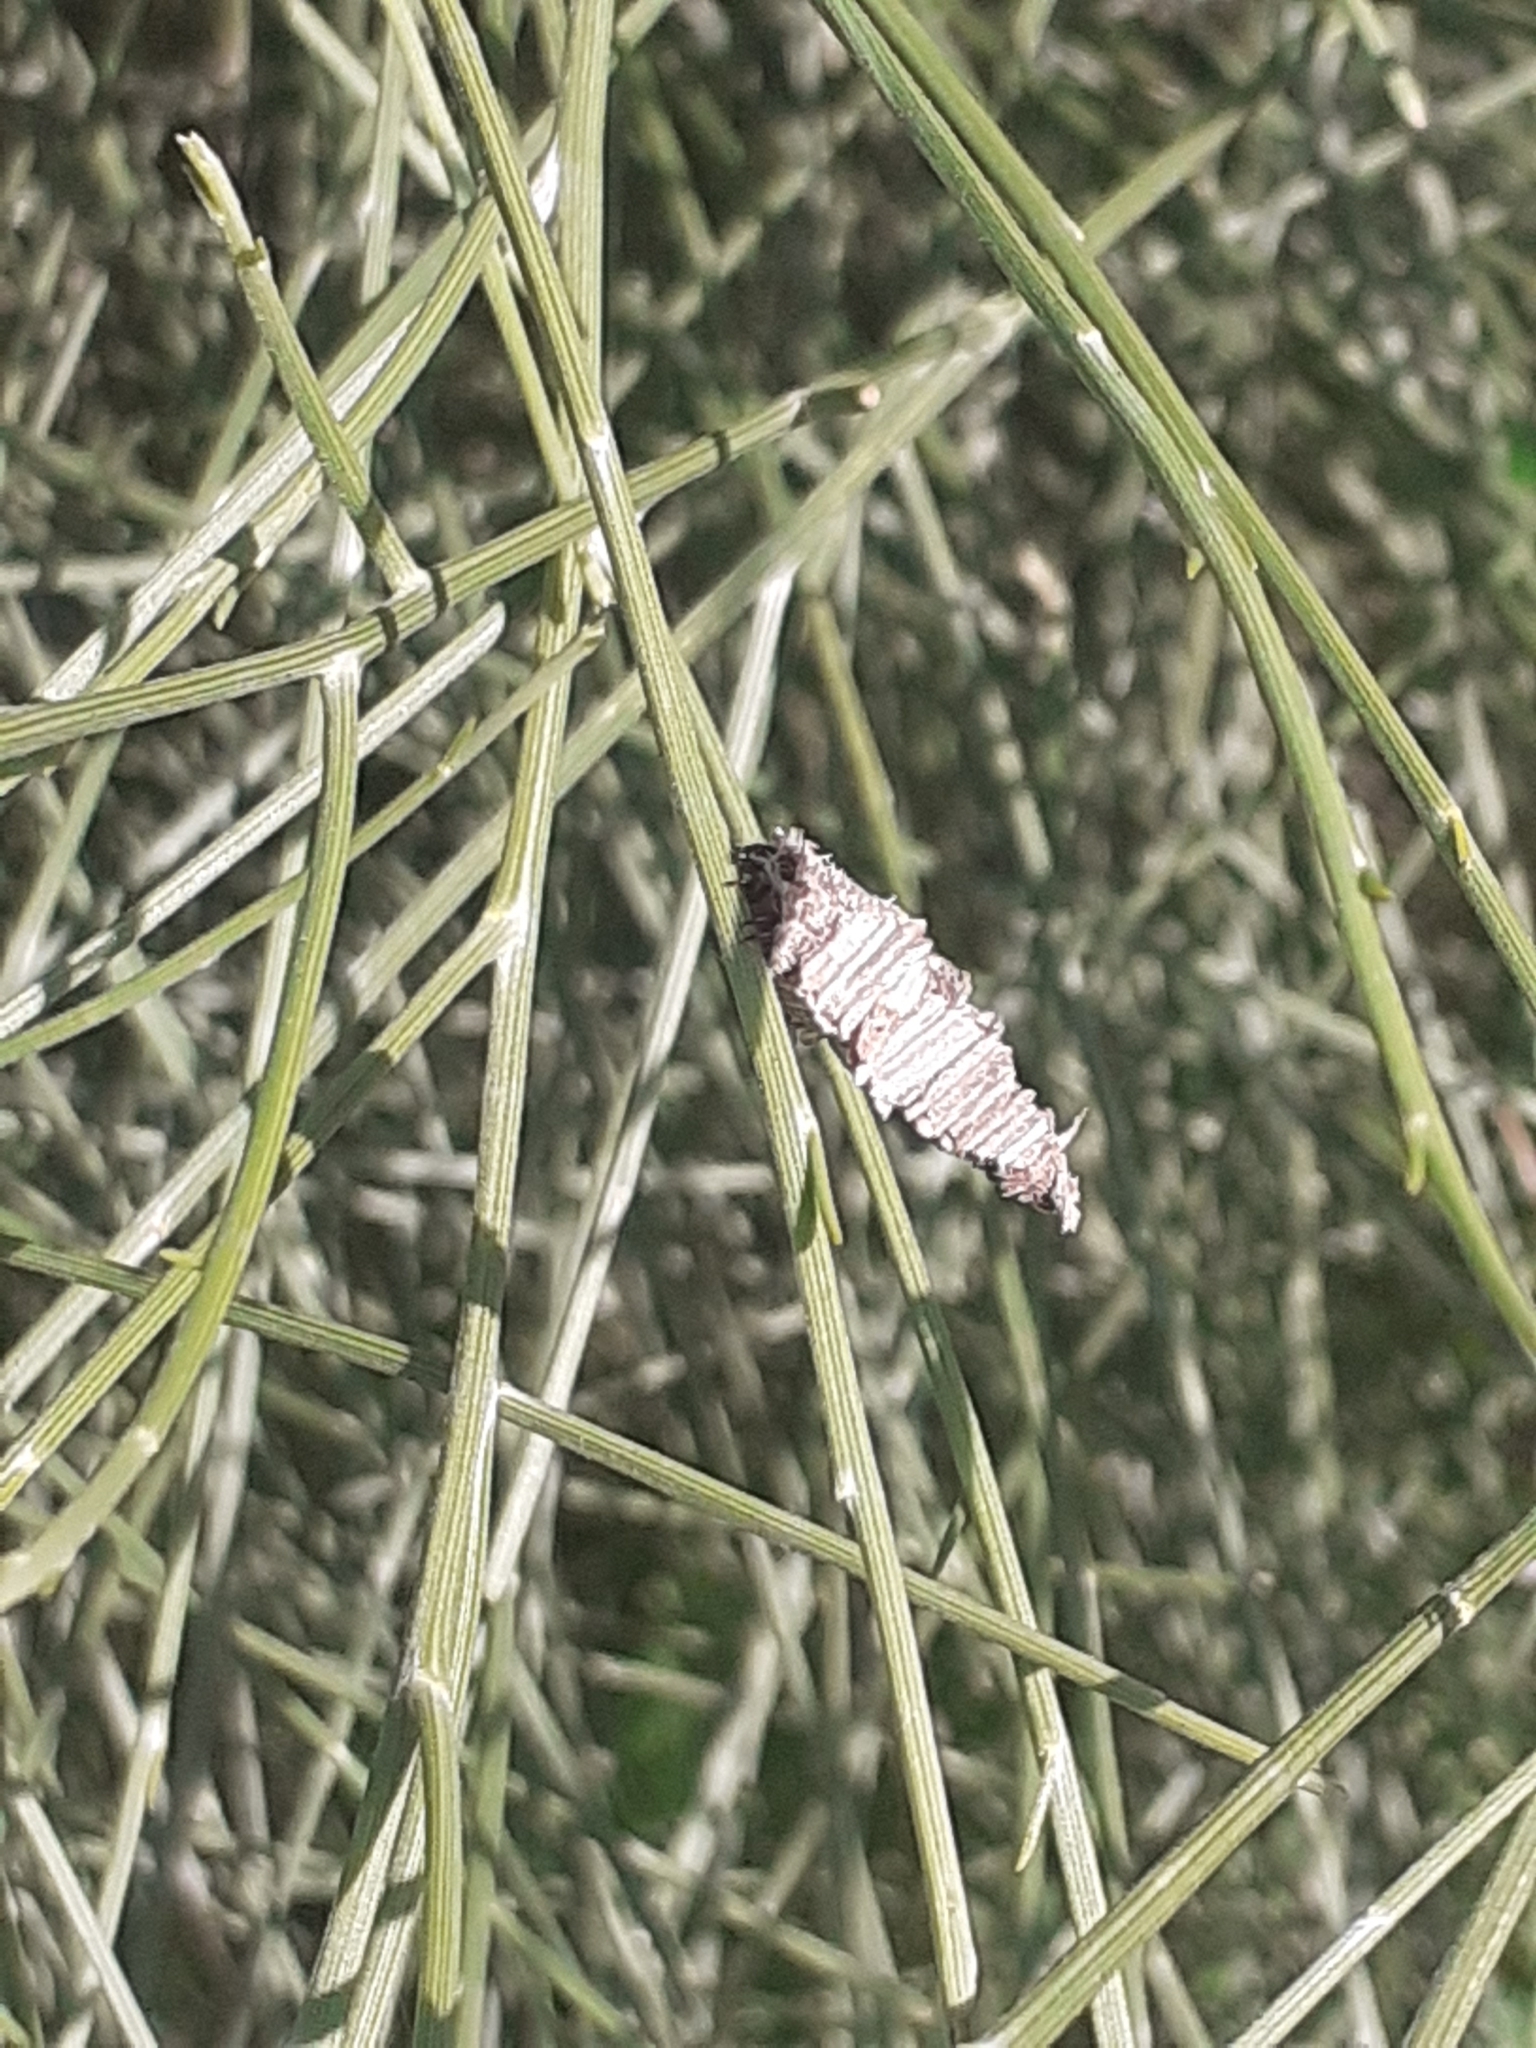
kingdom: Animalia
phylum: Arthropoda
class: Insecta
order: Lepidoptera
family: Psychidae
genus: Amicta
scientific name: Amicta cabrerai
